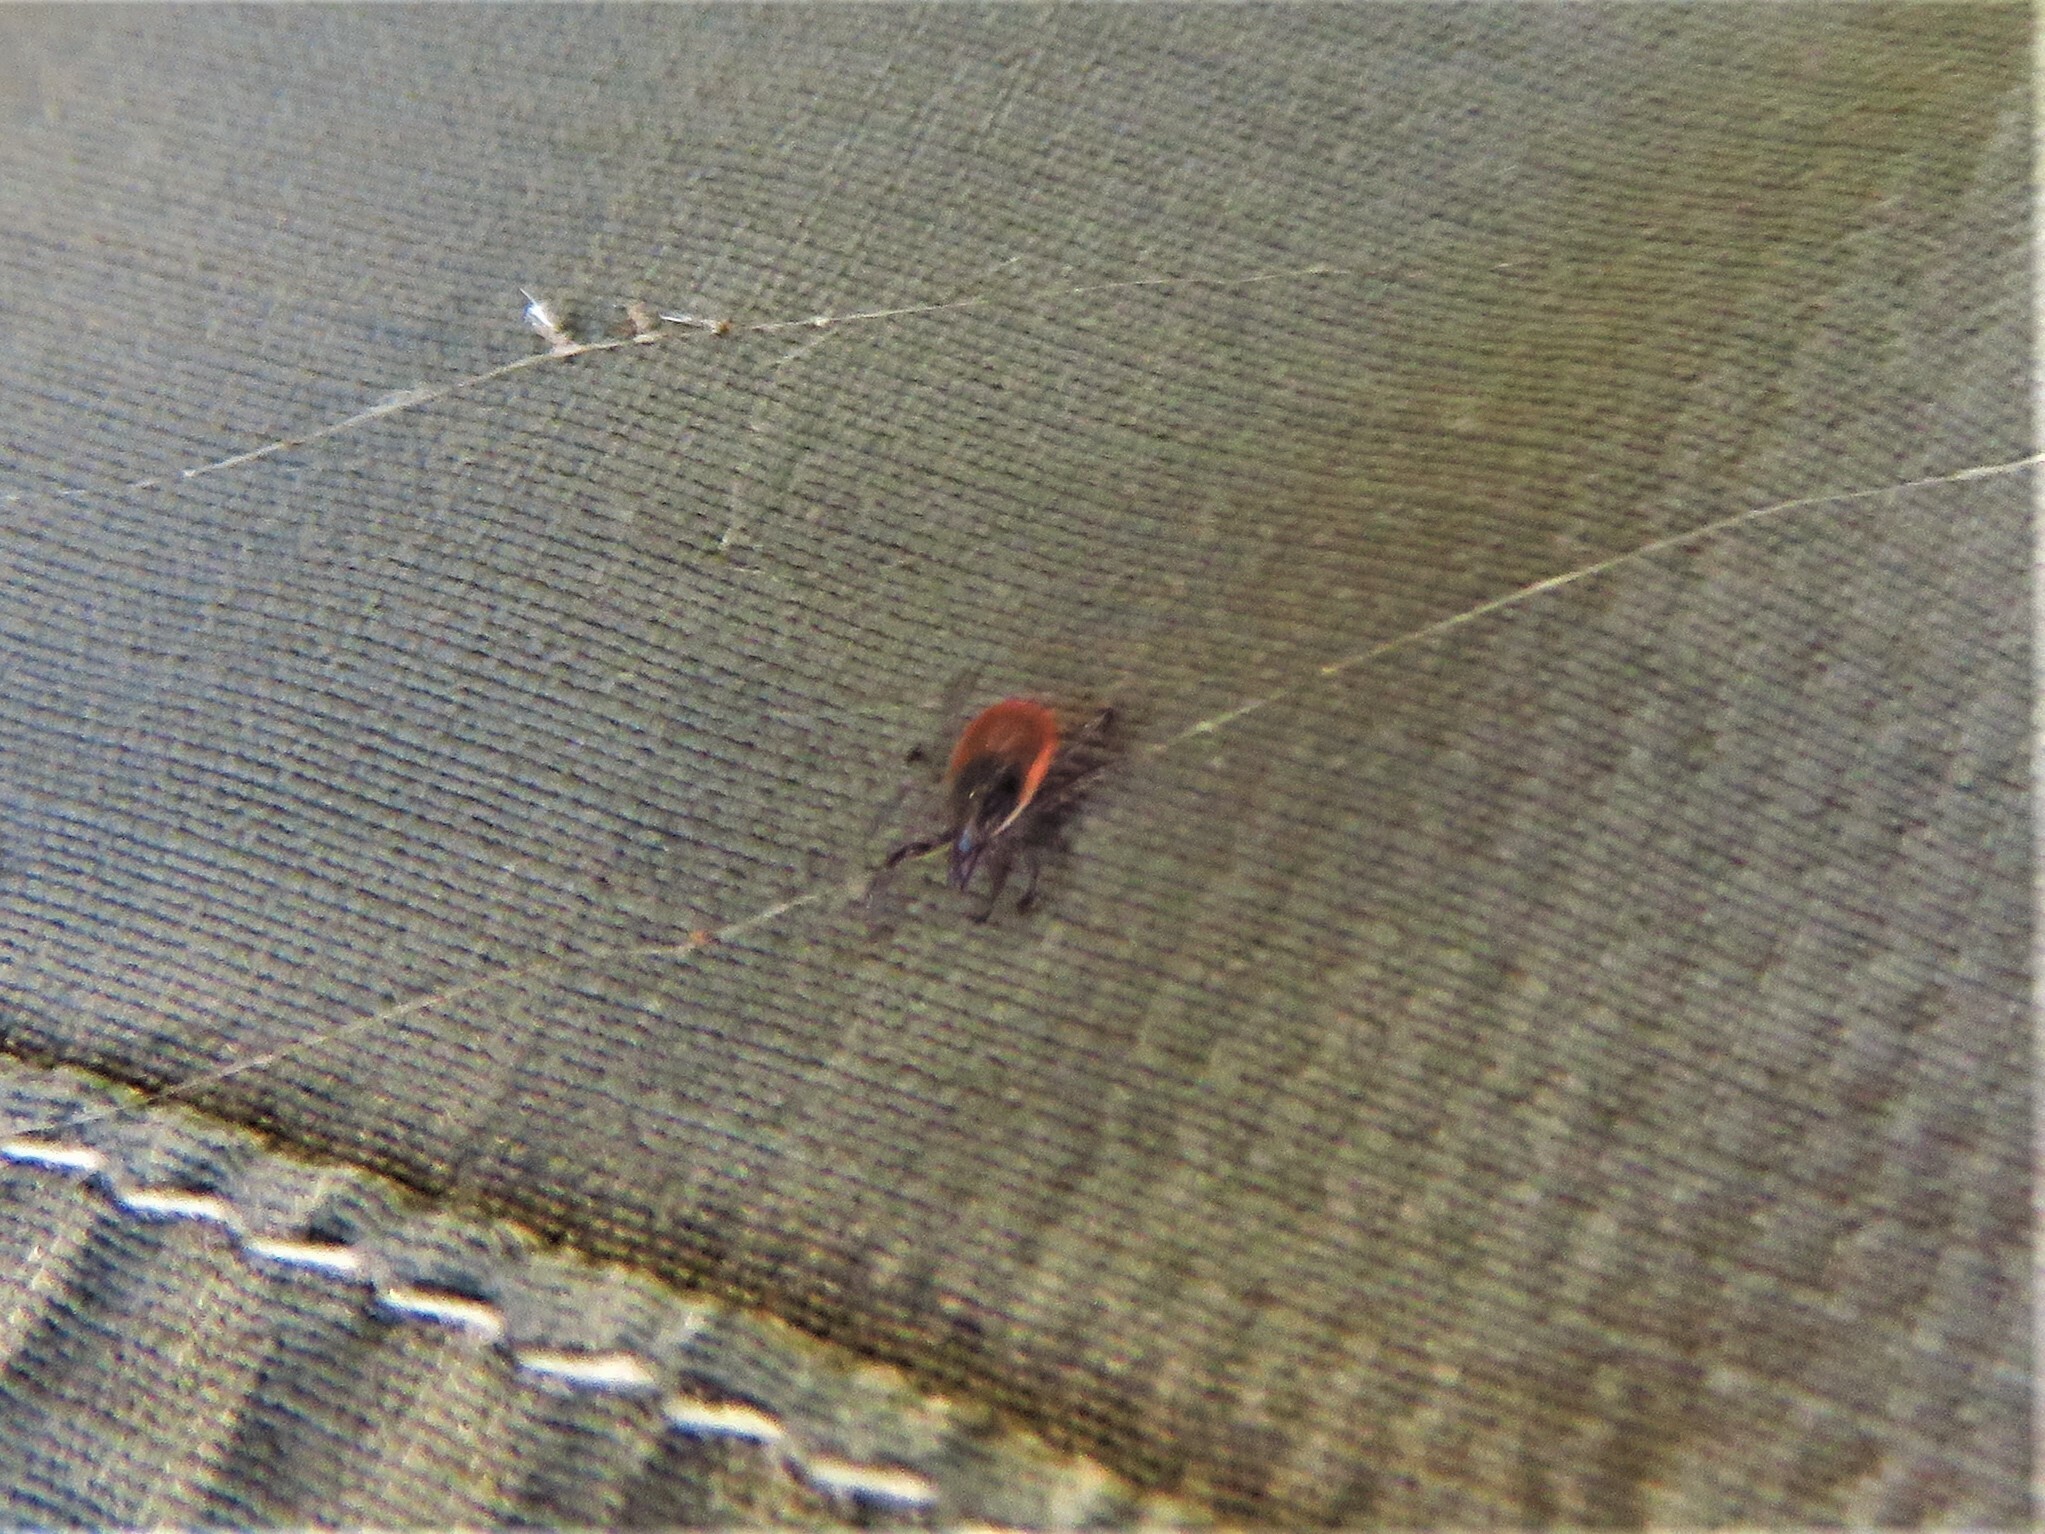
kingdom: Animalia
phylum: Arthropoda
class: Arachnida
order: Ixodida
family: Ixodidae
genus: Ixodes
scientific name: Ixodes scapularis
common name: Black legged tick
